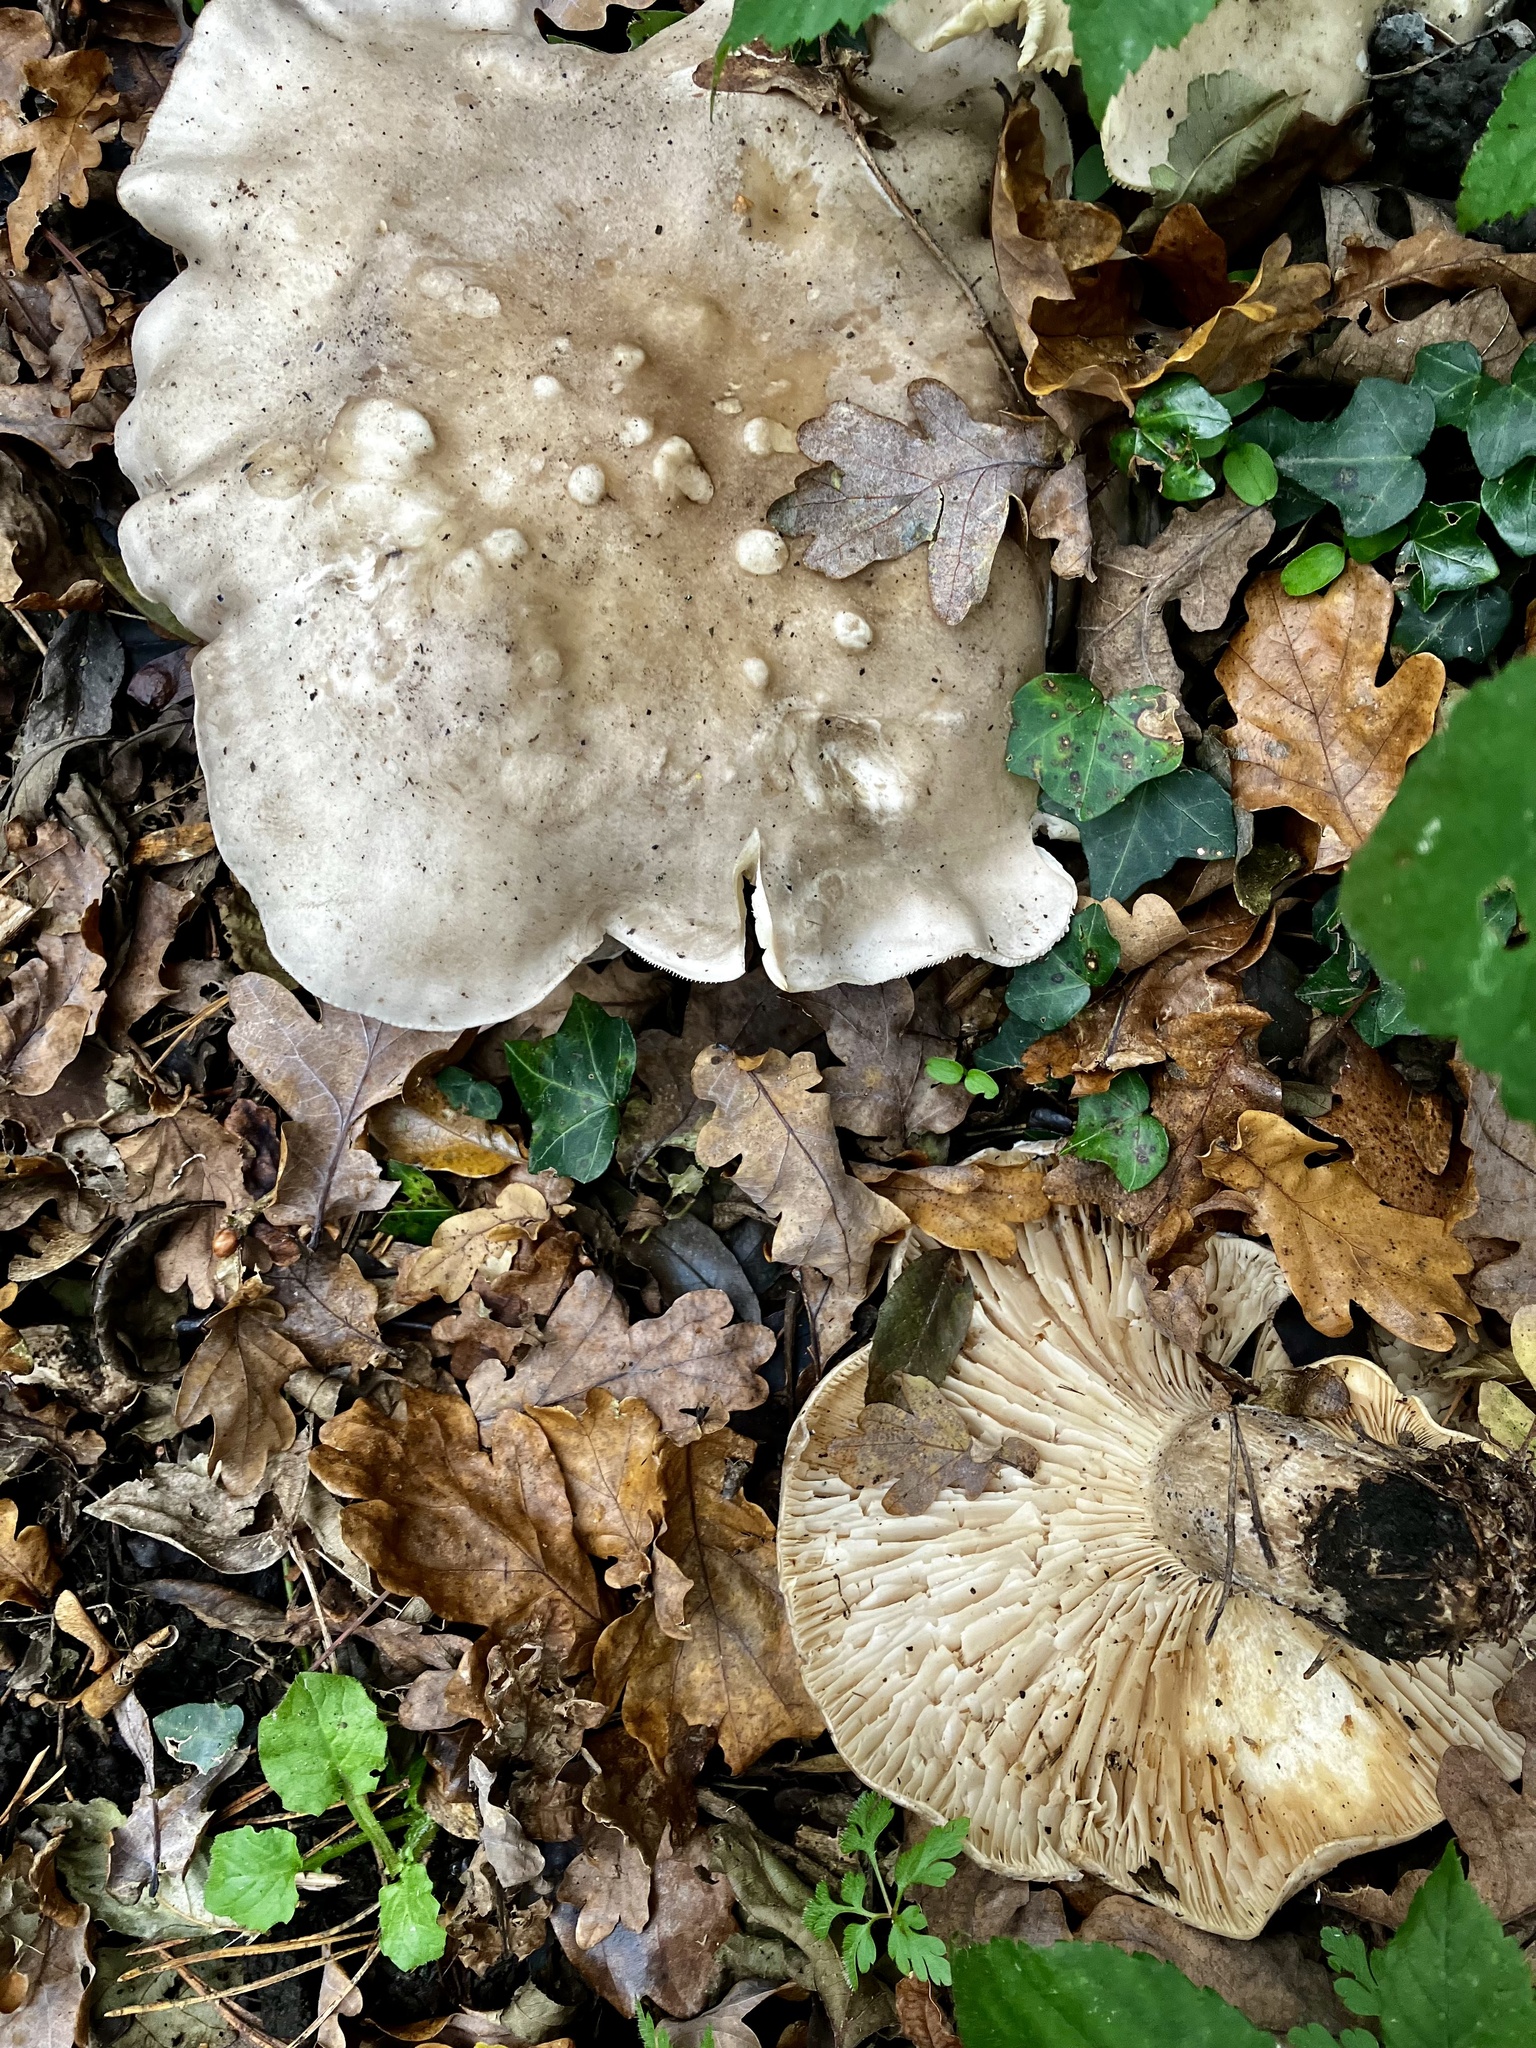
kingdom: Fungi
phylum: Basidiomycota
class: Agaricomycetes
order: Agaricales
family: Tricholomataceae
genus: Clitocybe
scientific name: Clitocybe nebularis
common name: Clouded agaric
